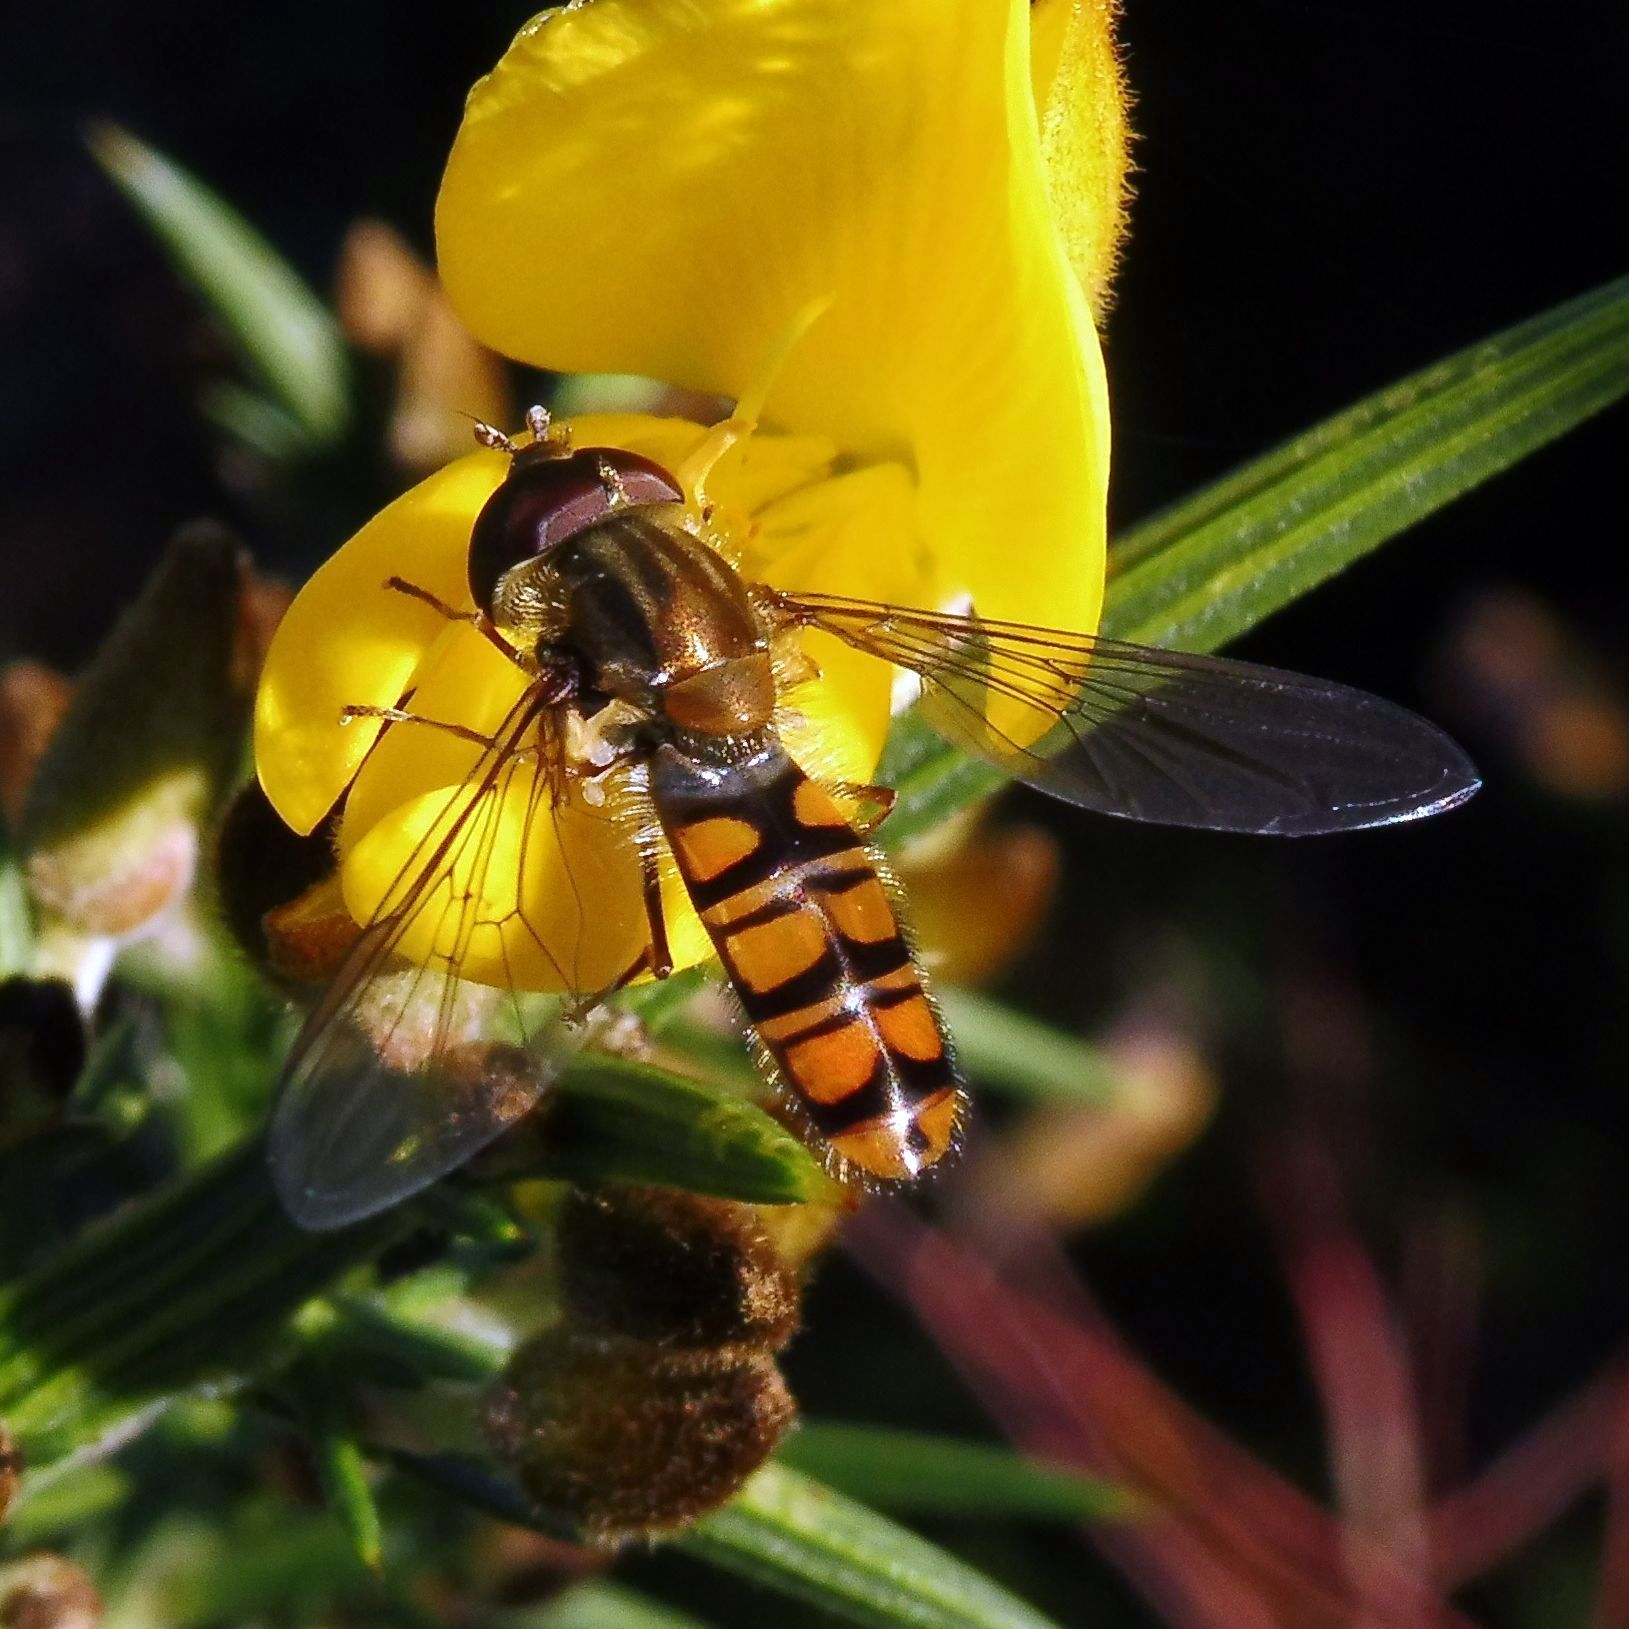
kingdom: Animalia
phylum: Arthropoda
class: Insecta
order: Diptera
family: Syrphidae
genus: Episyrphus
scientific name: Episyrphus balteatus
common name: Marmalade hoverfly
